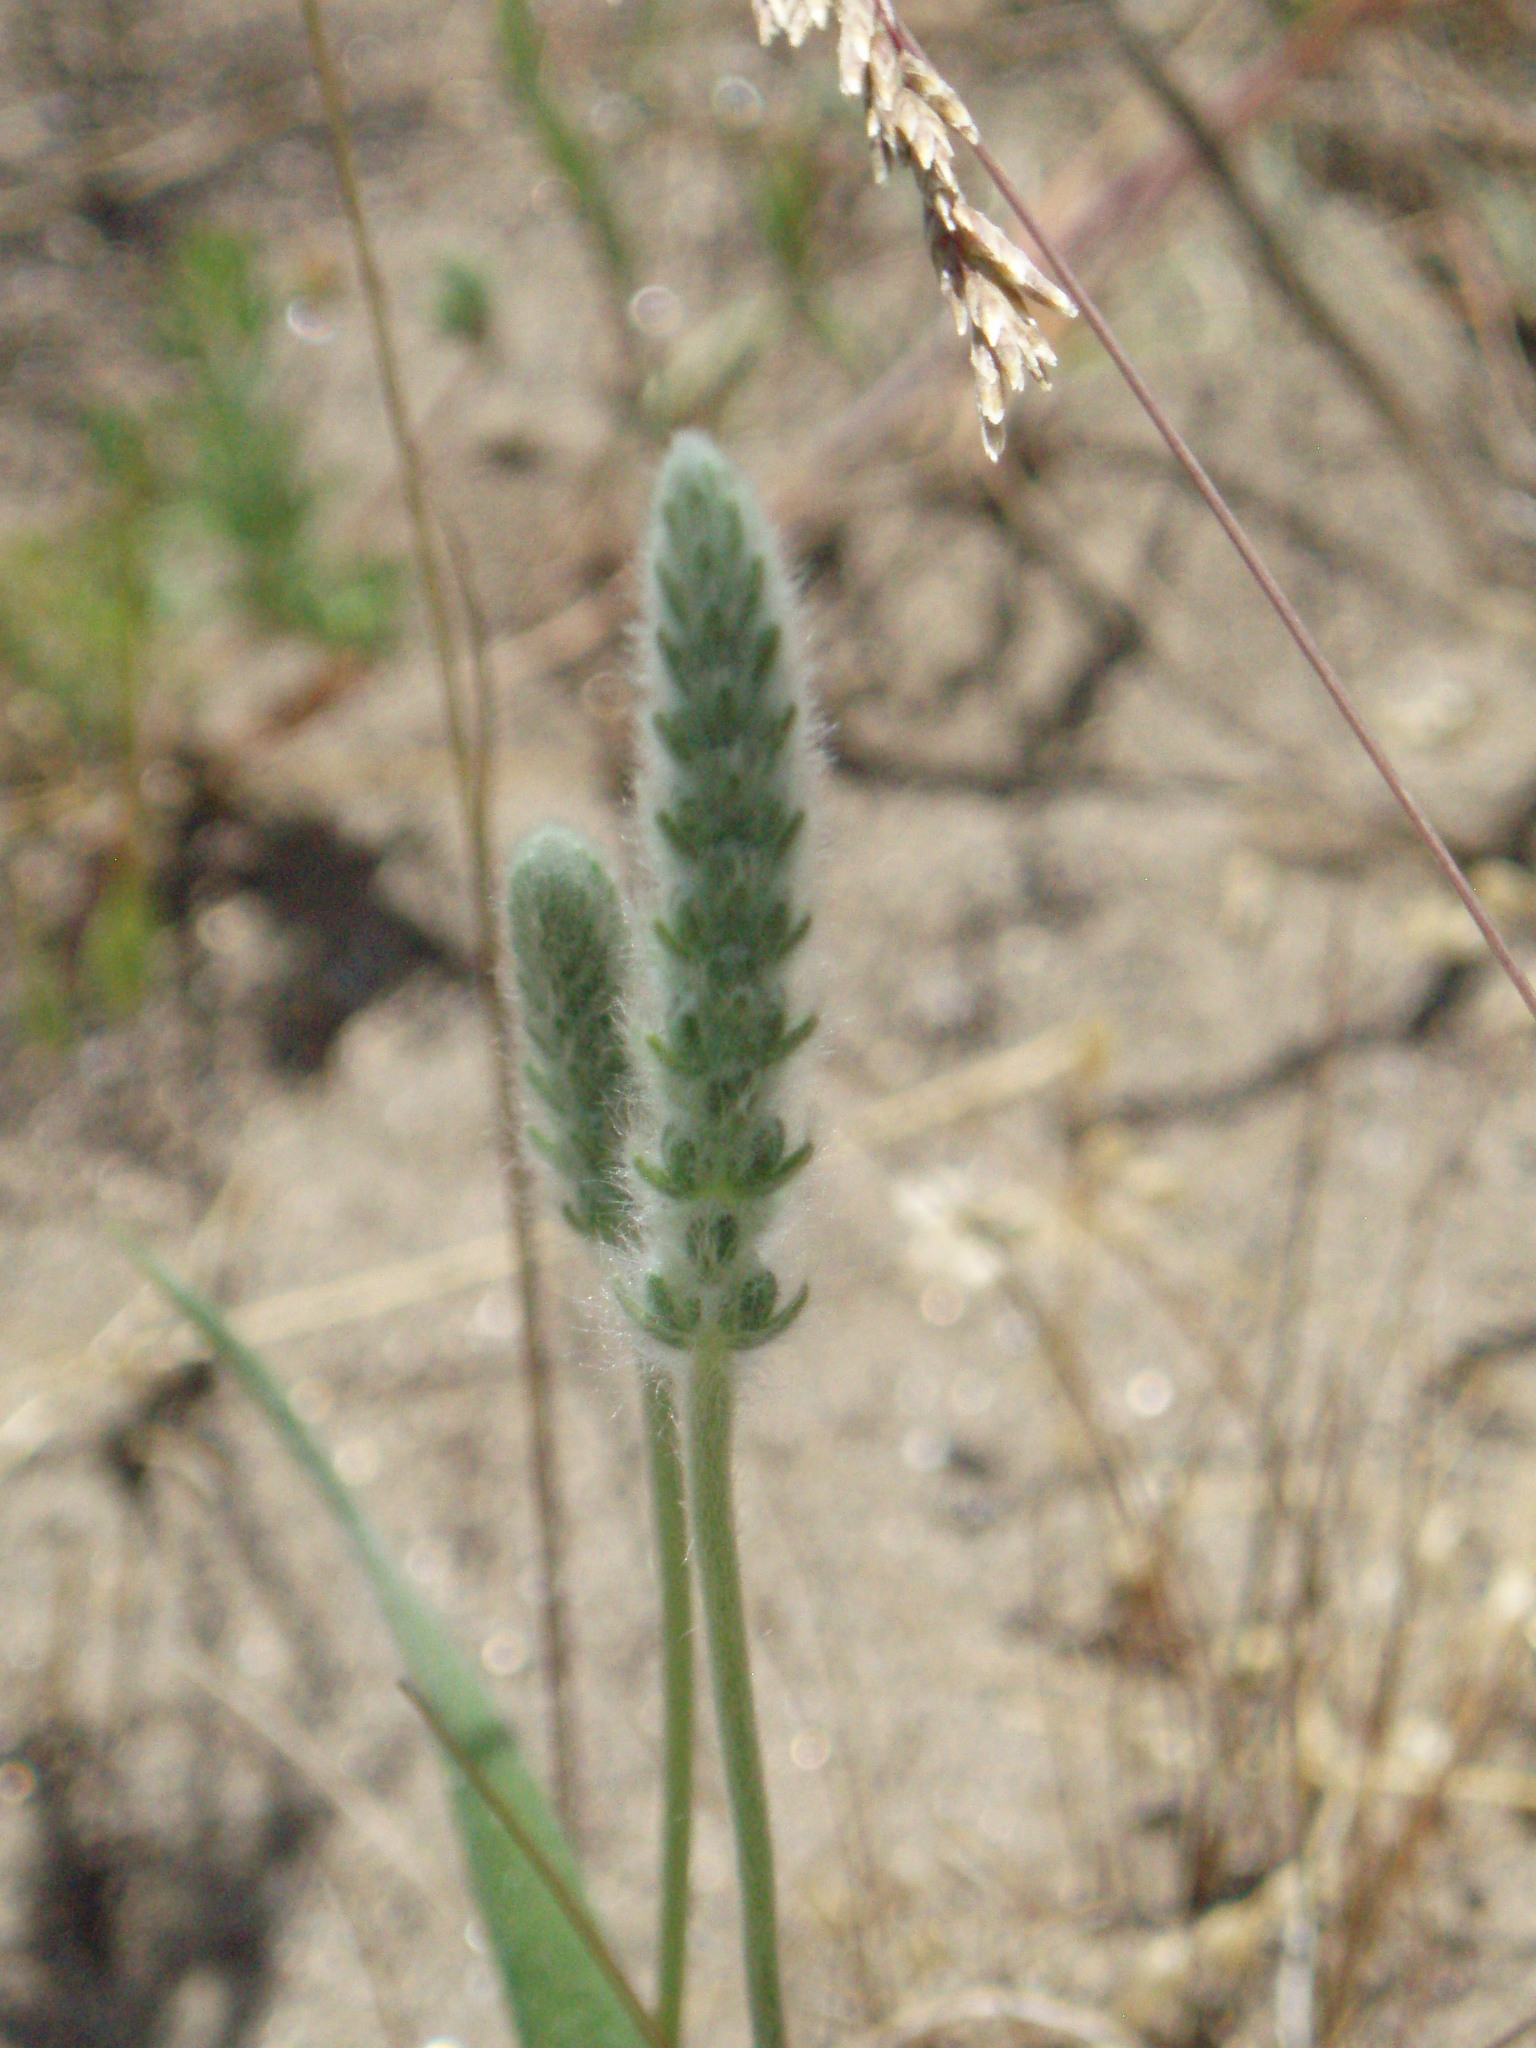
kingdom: Plantae
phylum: Tracheophyta
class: Magnoliopsida
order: Lamiales
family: Plantaginaceae
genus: Plantago
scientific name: Plantago patagonica
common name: Patagonia indian-wheat
